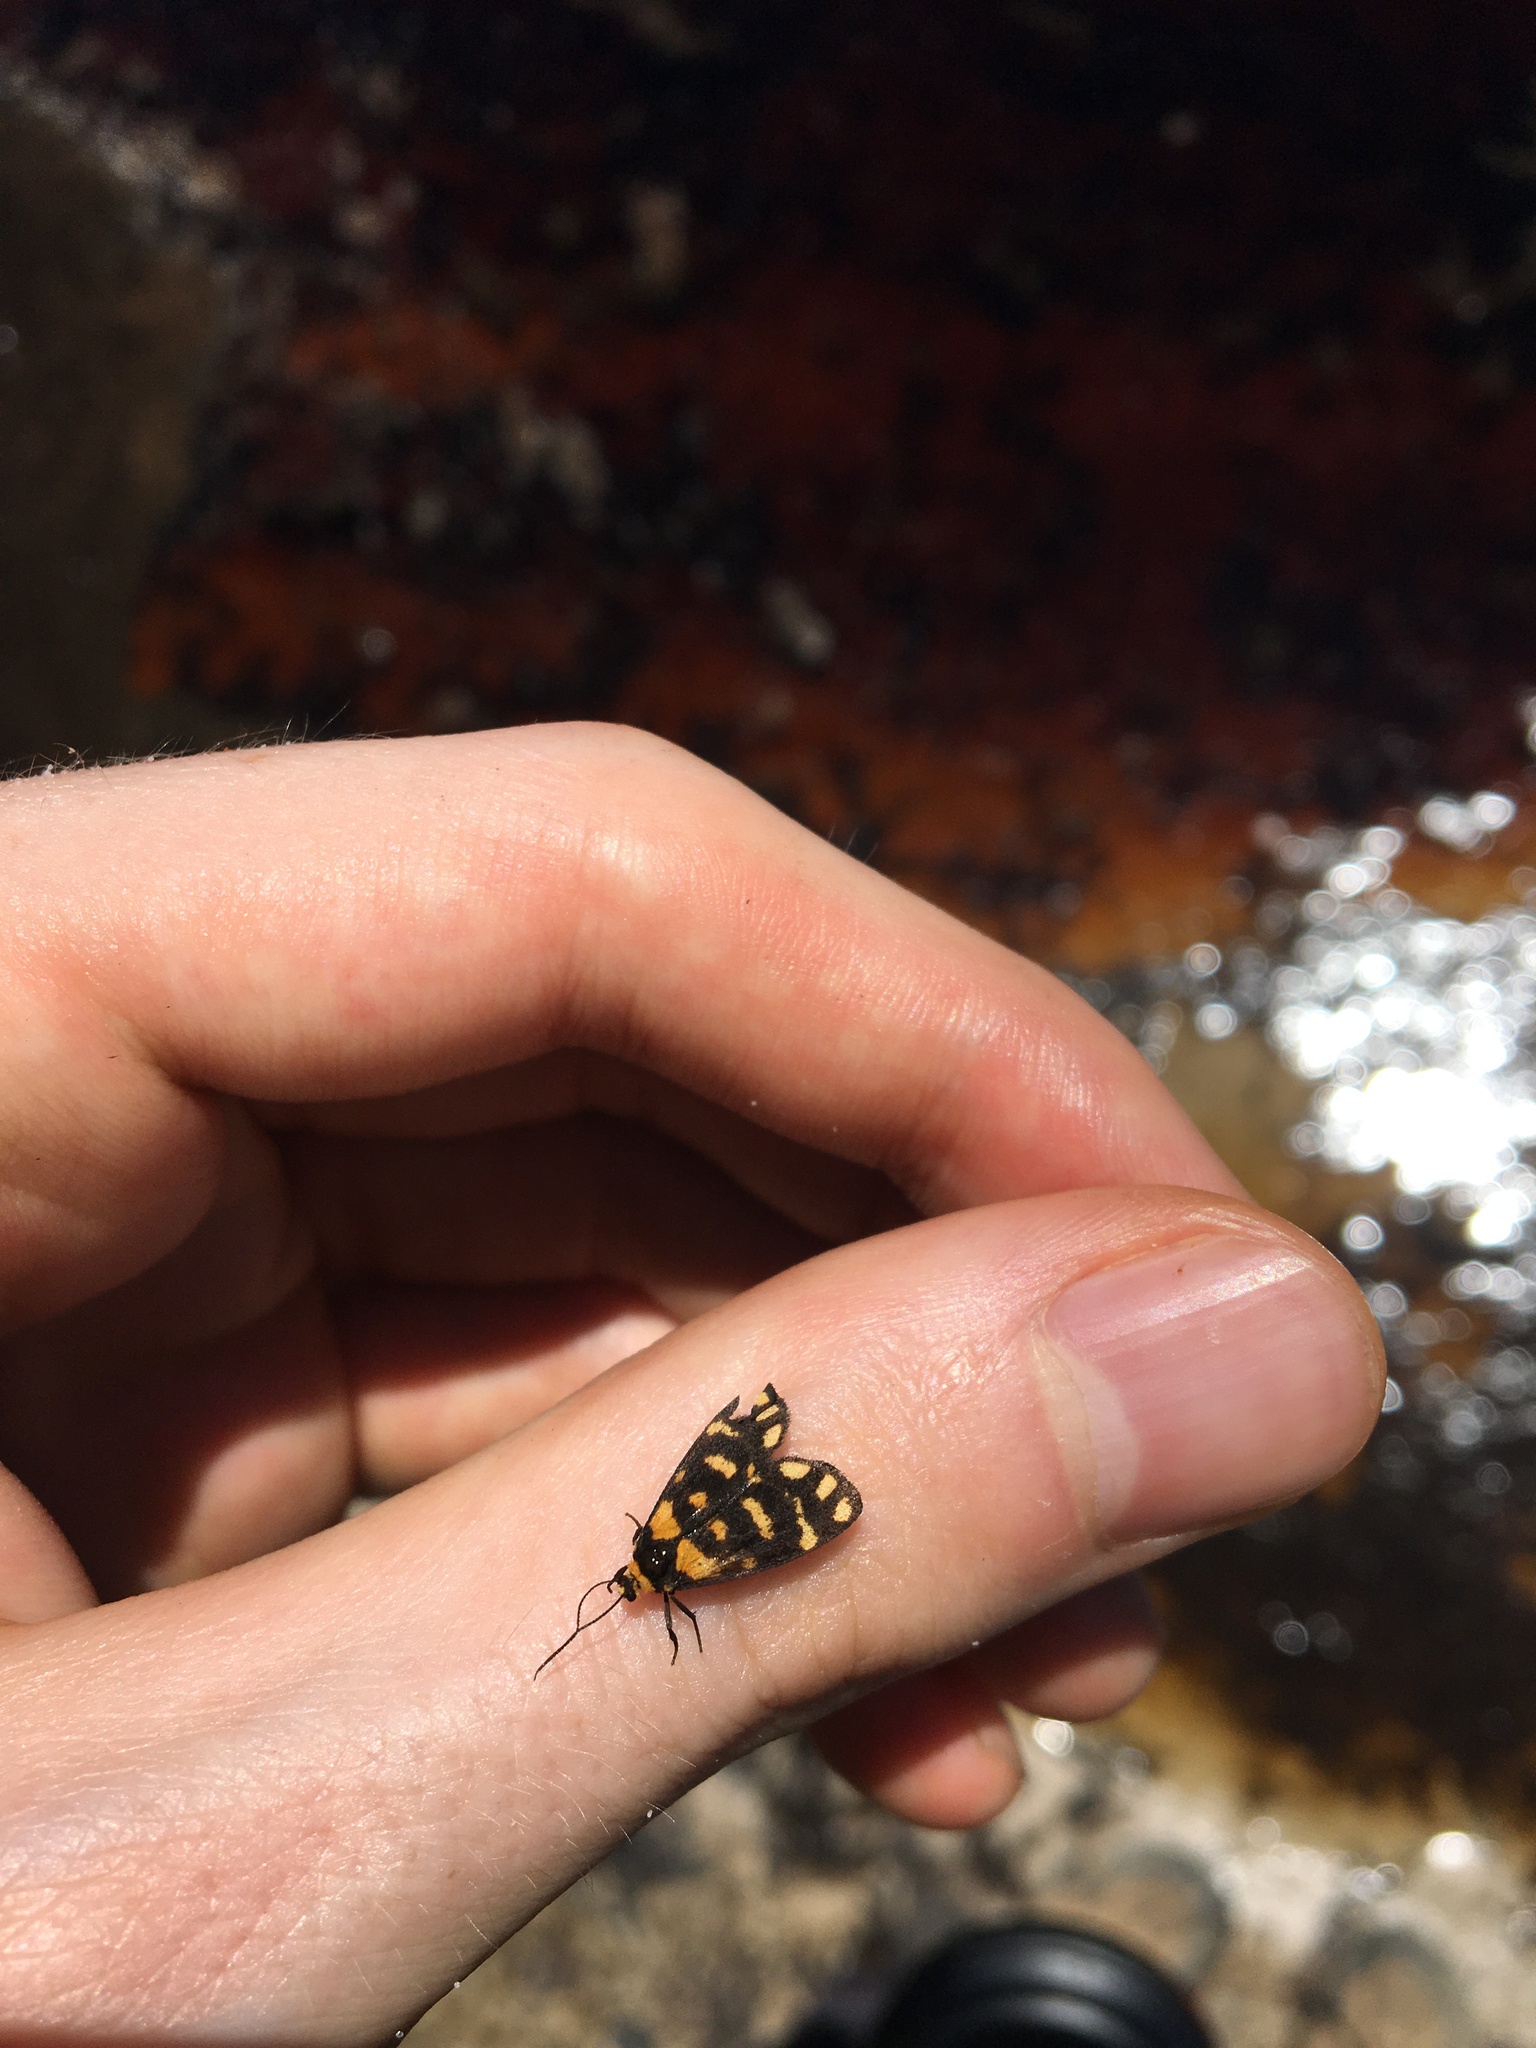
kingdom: Animalia
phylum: Arthropoda
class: Insecta
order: Lepidoptera
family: Erebidae
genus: Asura
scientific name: Asura lydia
